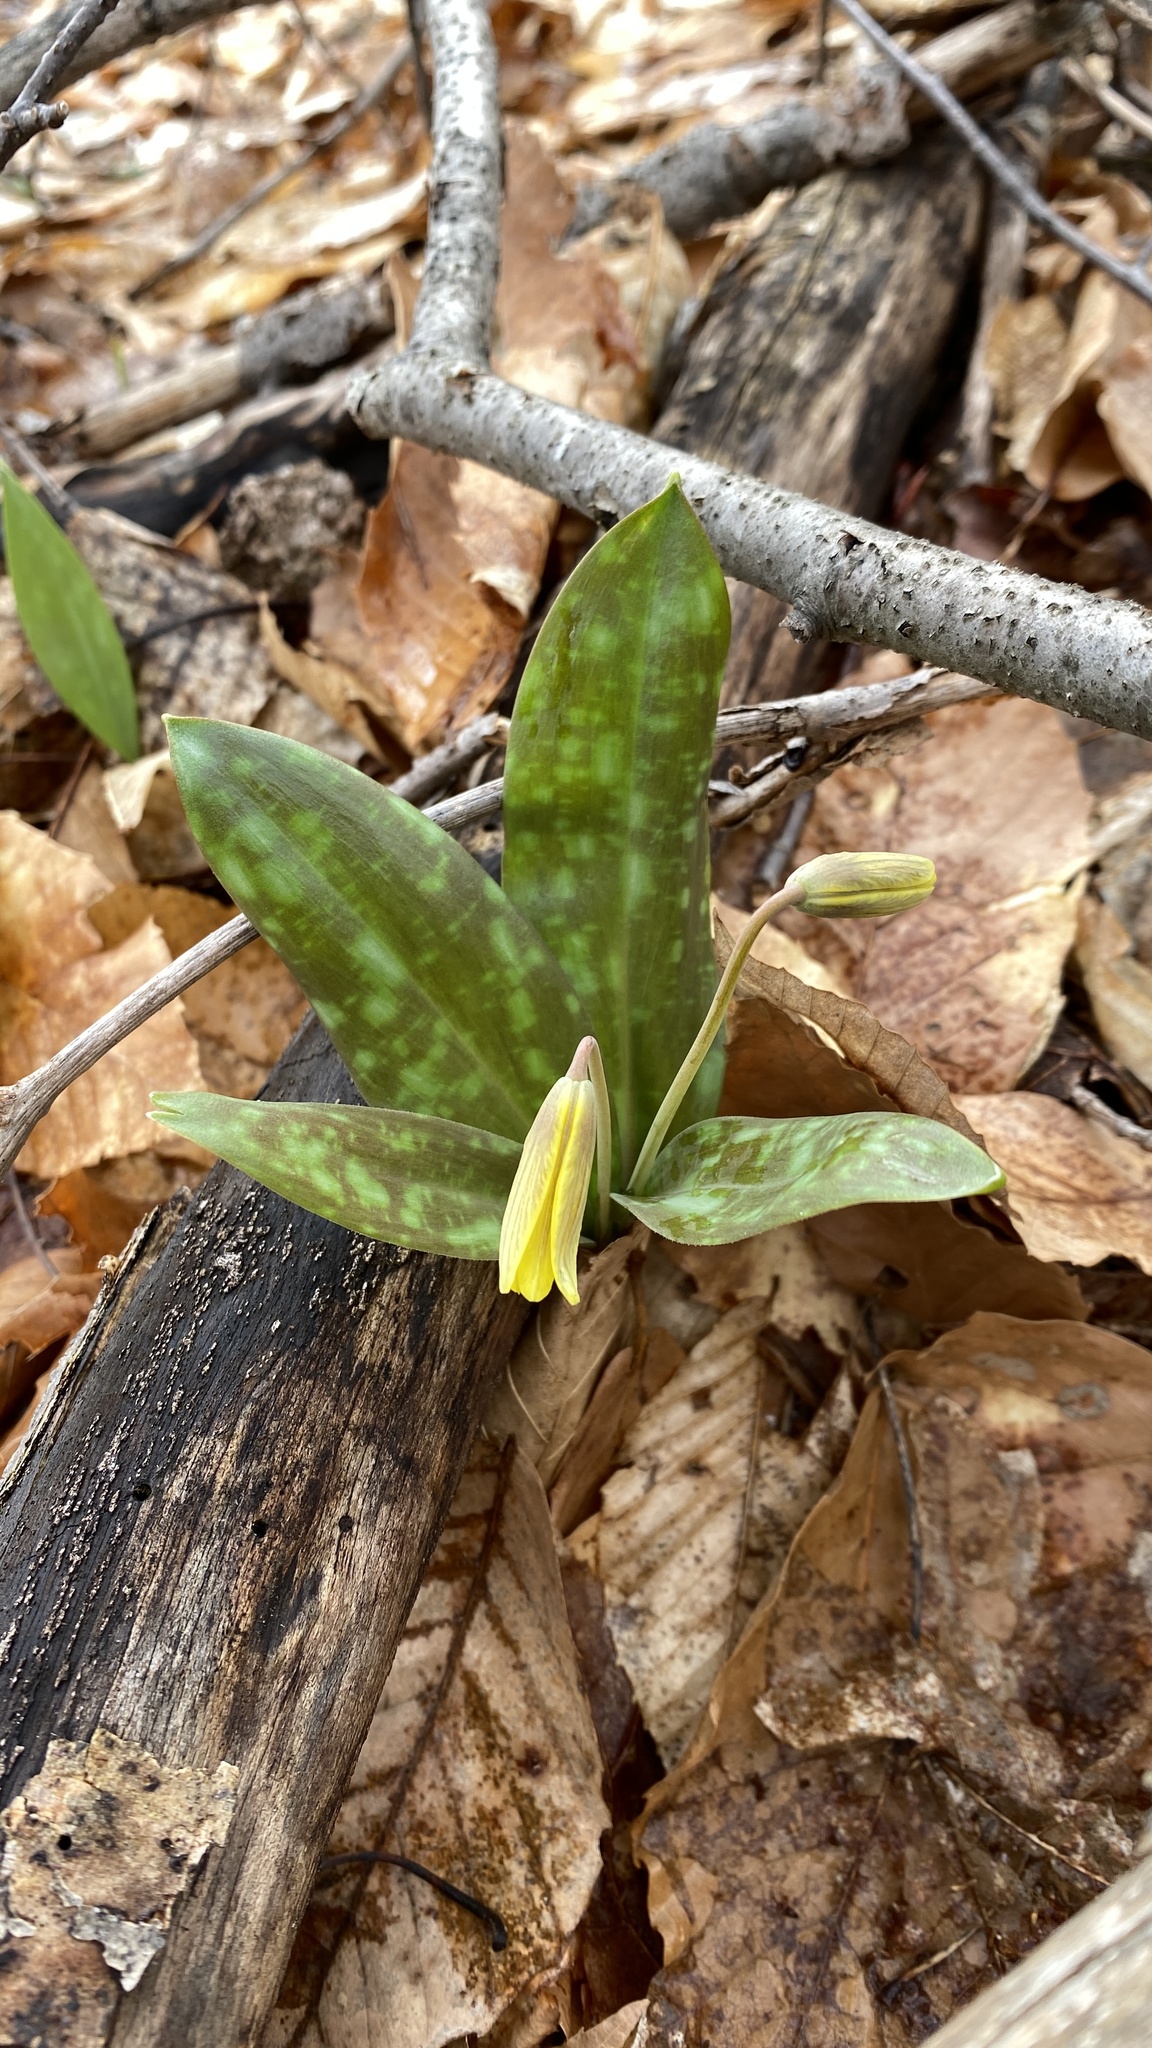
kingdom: Plantae
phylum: Tracheophyta
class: Liliopsida
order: Liliales
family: Liliaceae
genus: Erythronium
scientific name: Erythronium americanum
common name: Yellow adder's-tongue
